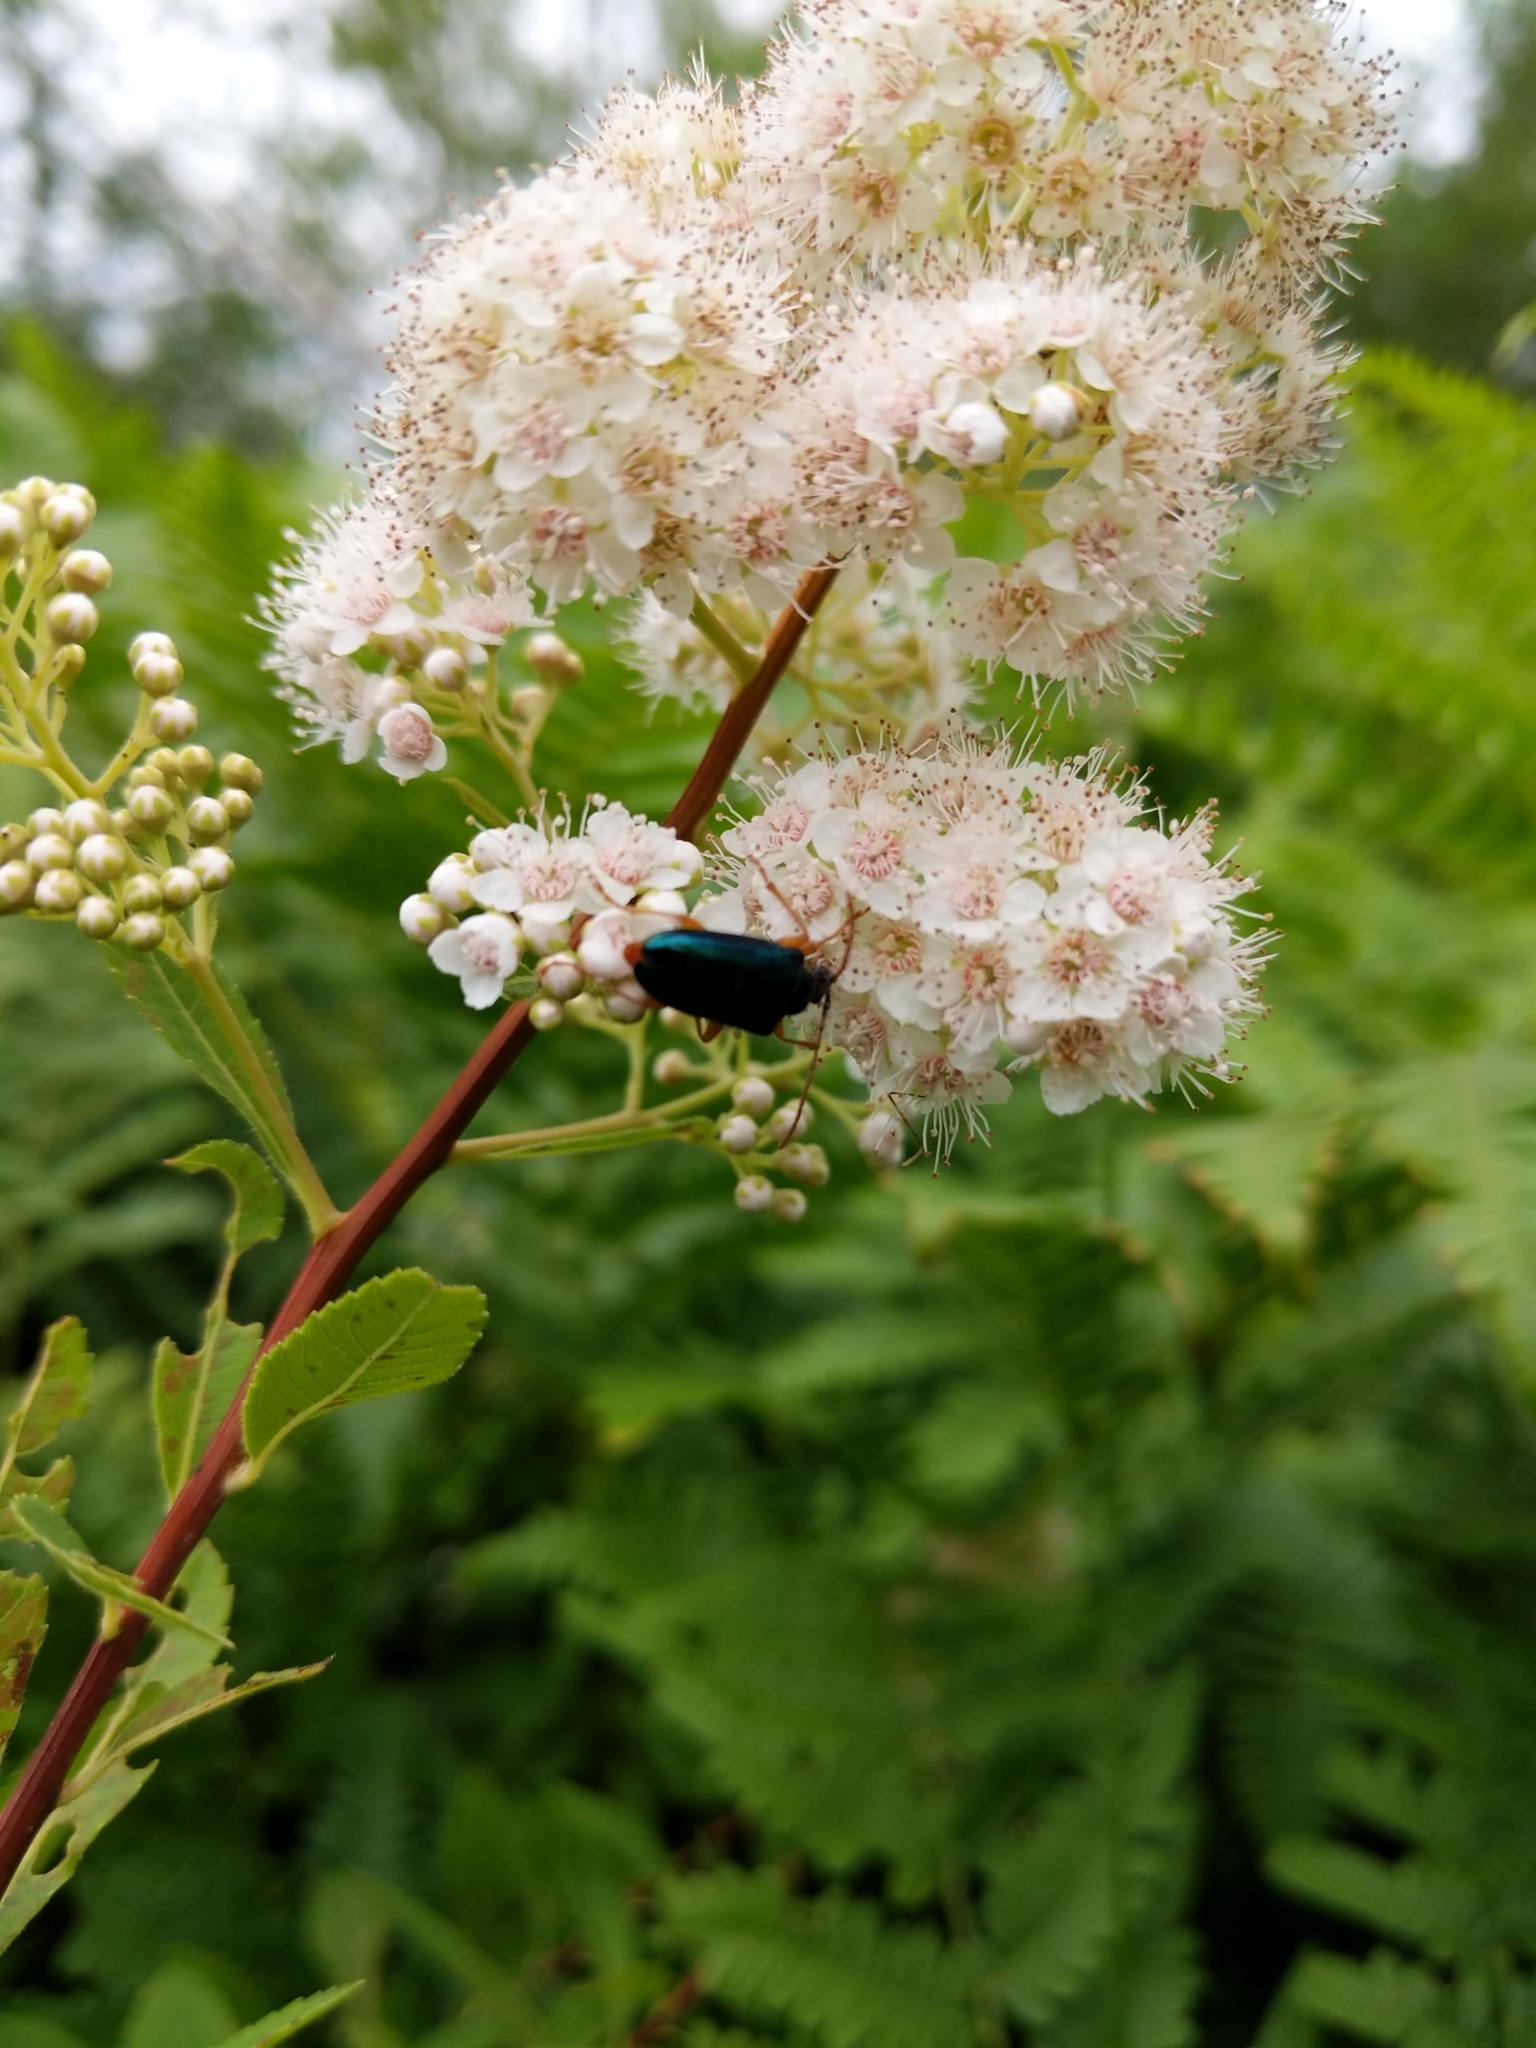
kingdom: Plantae
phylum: Tracheophyta
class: Magnoliopsida
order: Rosales
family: Rosaceae
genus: Spiraea
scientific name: Spiraea alba
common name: Pale bridewort
